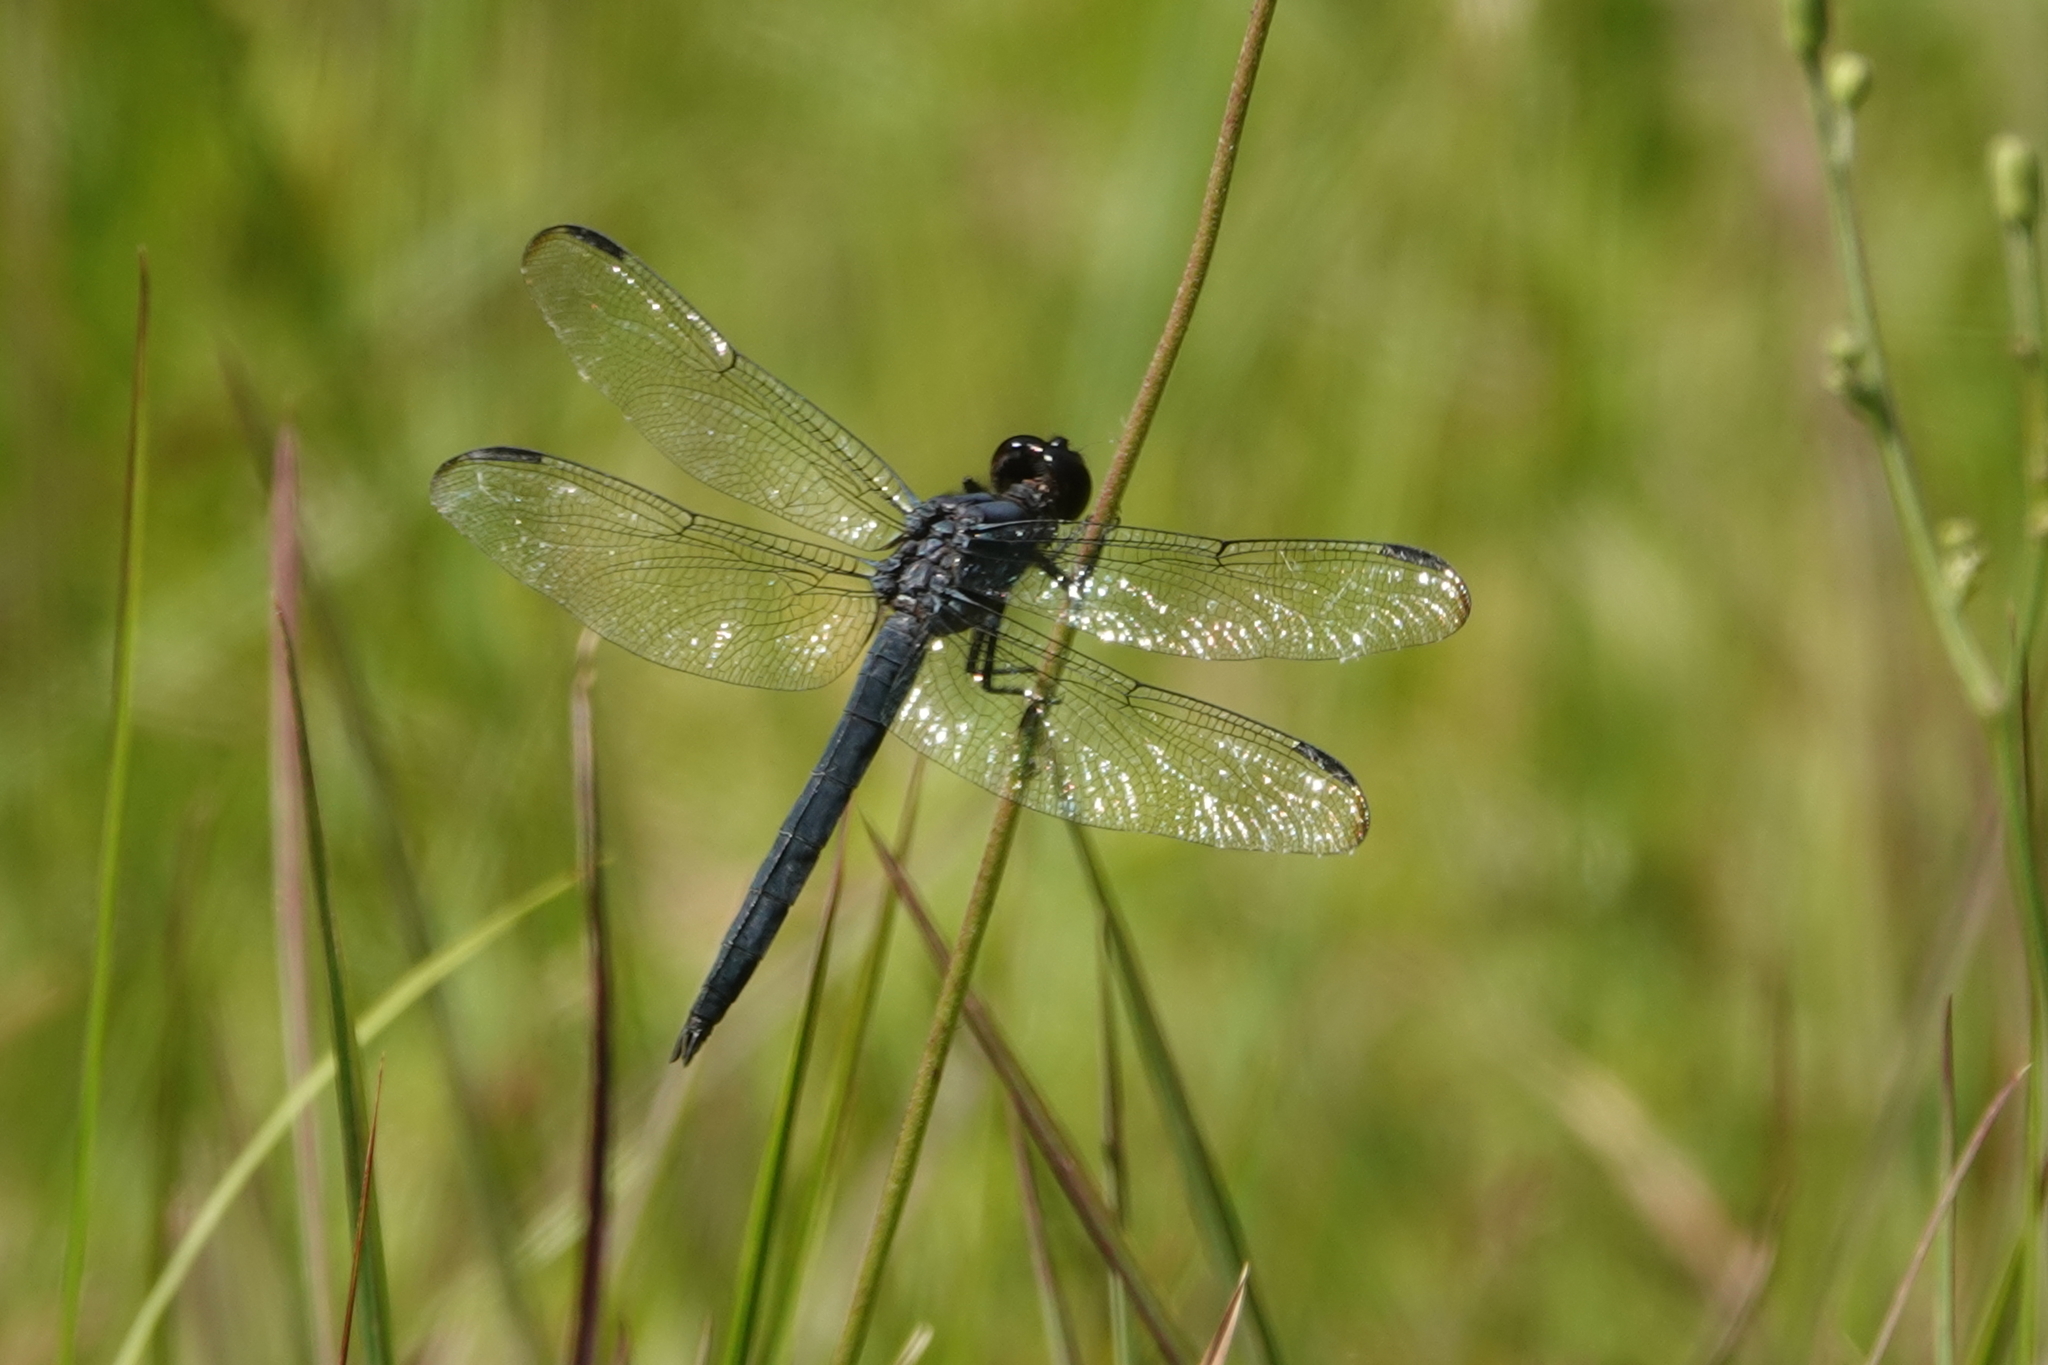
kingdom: Animalia
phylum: Arthropoda
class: Insecta
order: Odonata
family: Libellulidae
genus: Libellula
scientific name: Libellula incesta
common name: Slaty skimmer
